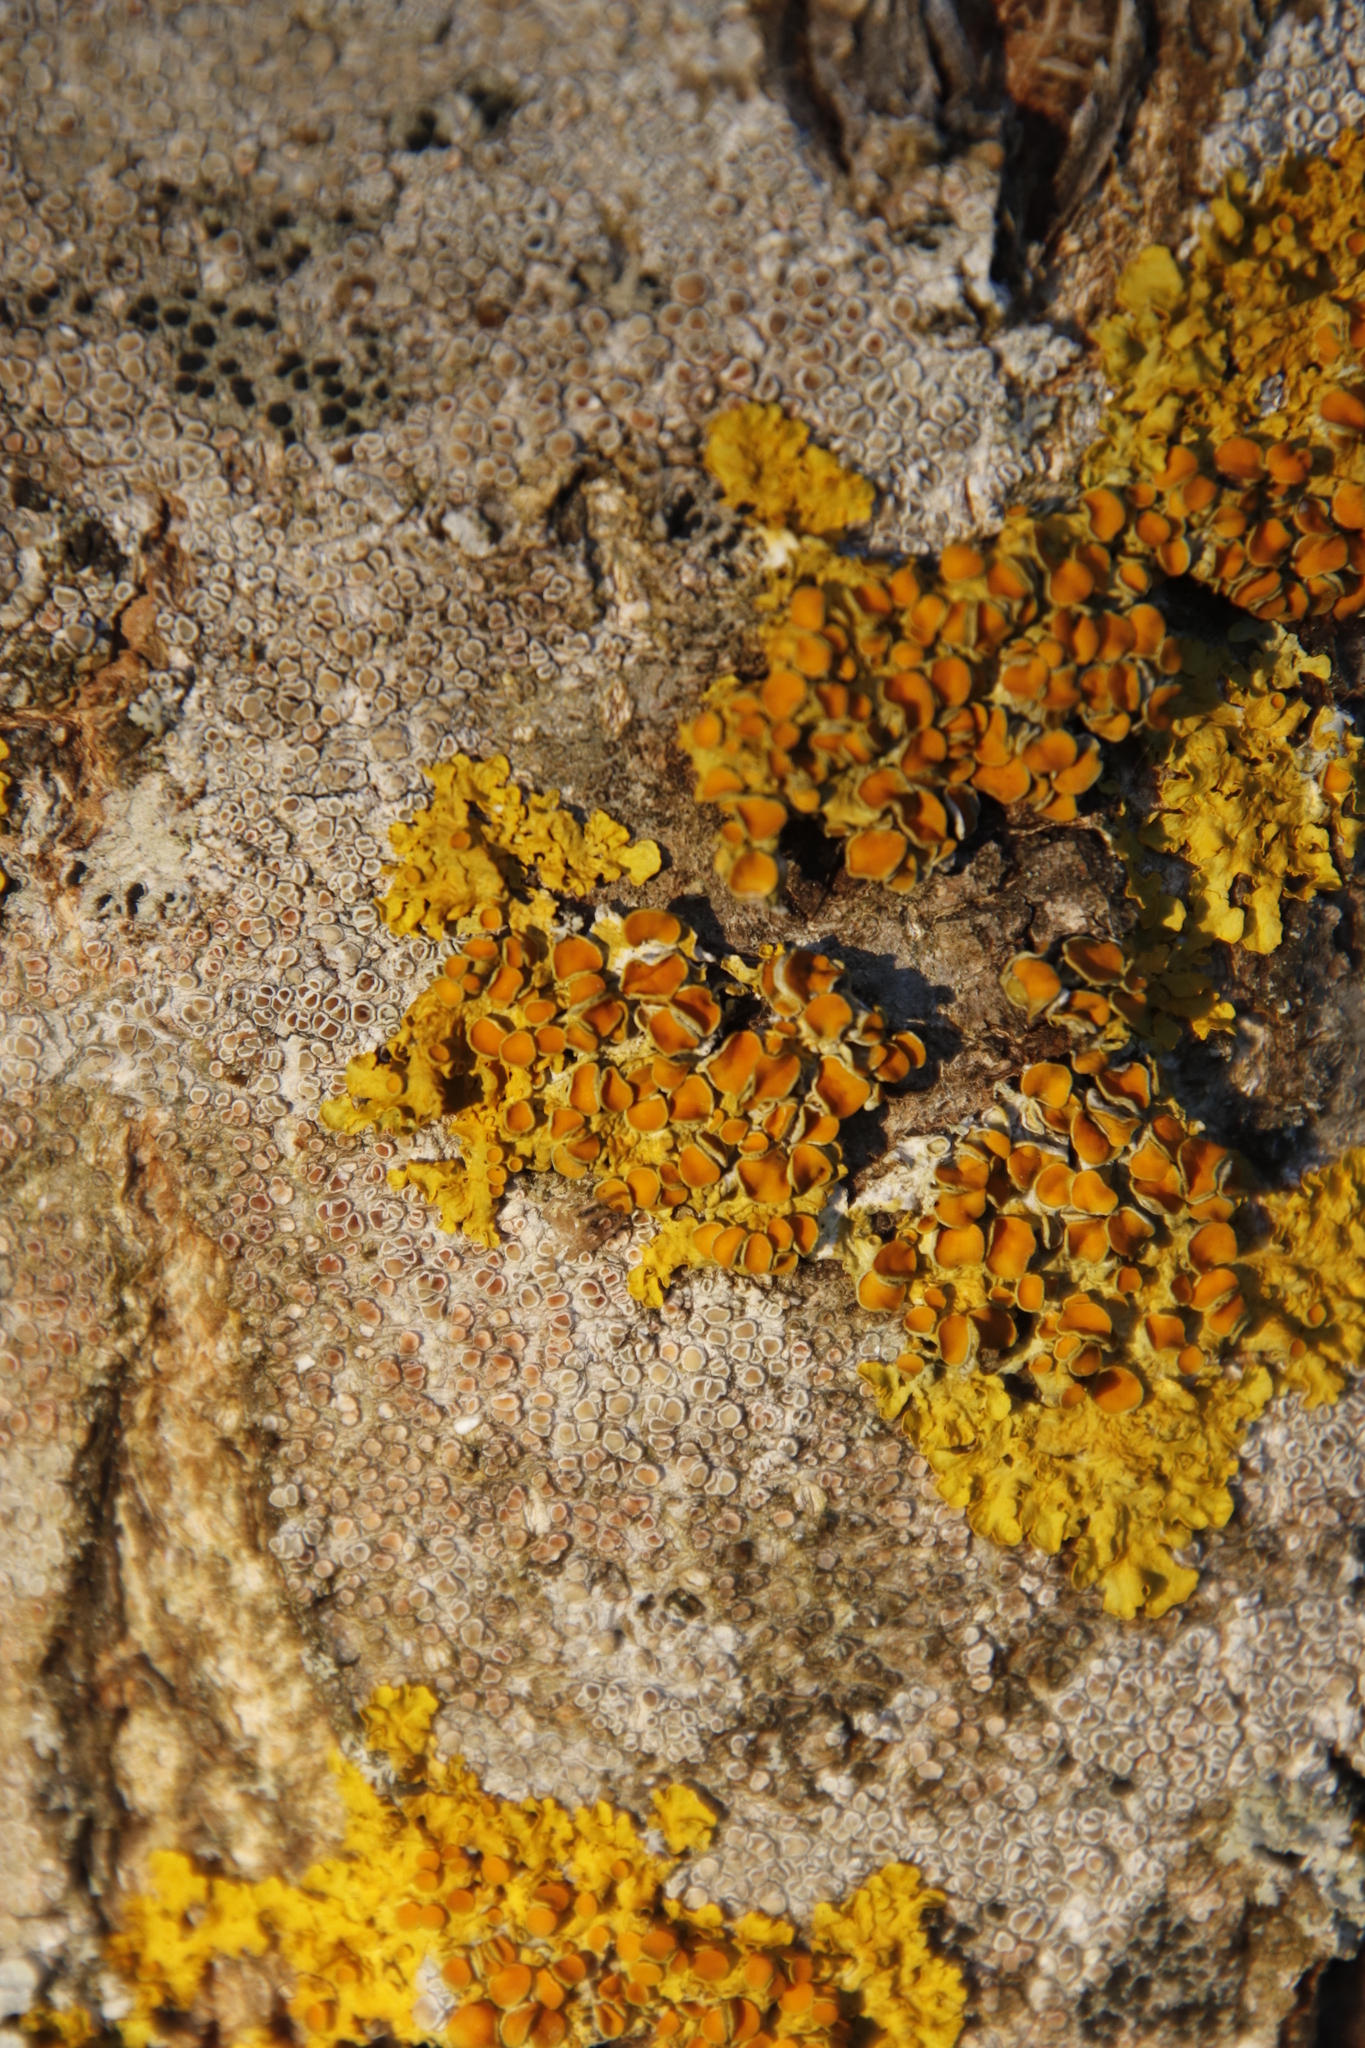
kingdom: Fungi
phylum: Ascomycota
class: Lecanoromycetes
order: Teloschistales
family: Teloschistaceae
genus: Xanthoria
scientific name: Xanthoria parietina
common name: Common orange lichen
